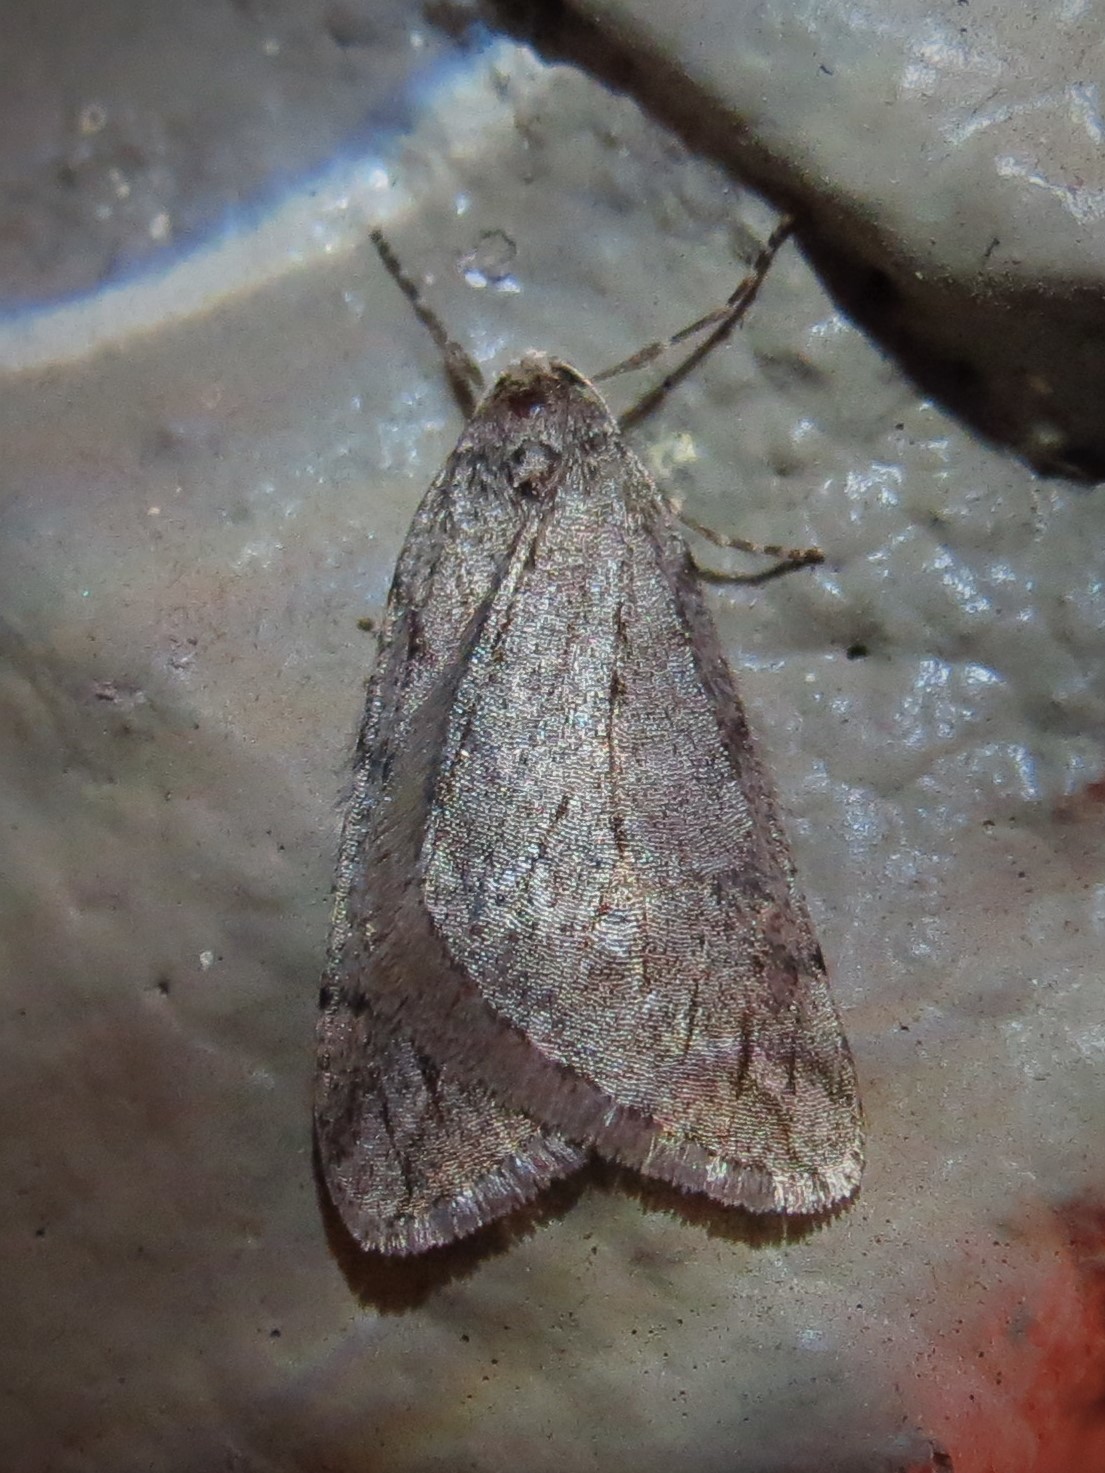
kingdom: Animalia
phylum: Arthropoda
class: Insecta
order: Lepidoptera
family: Geometridae
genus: Paleacrita
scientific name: Paleacrita vernata
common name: Spring cankerworm
